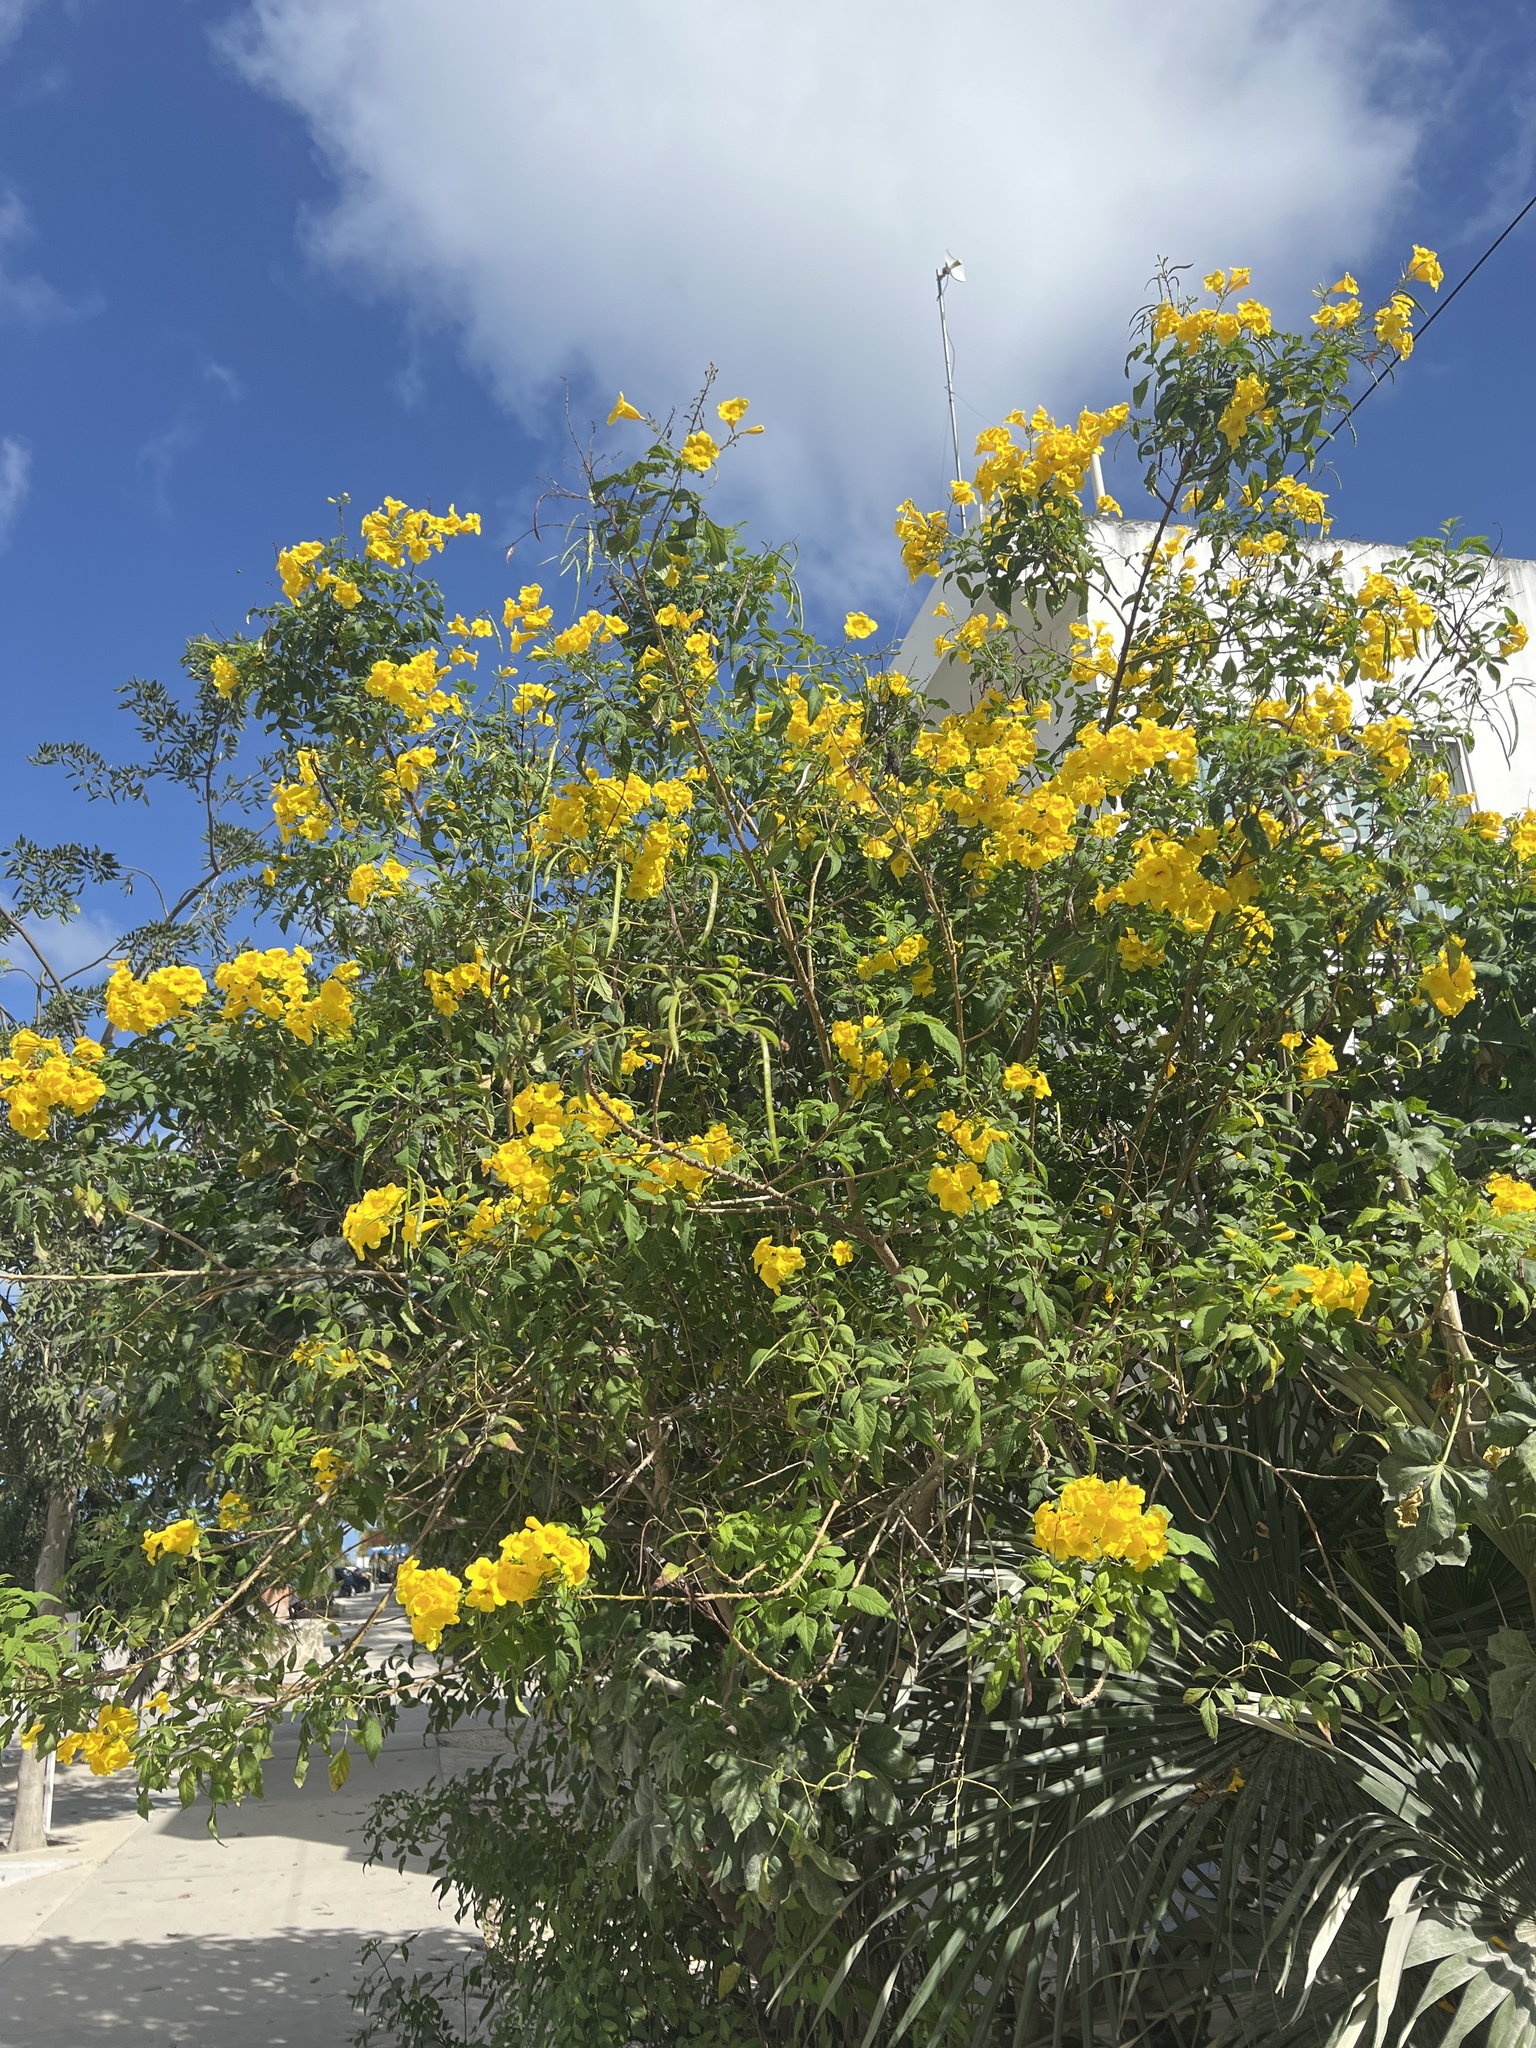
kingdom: Plantae
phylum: Tracheophyta
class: Magnoliopsida
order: Lamiales
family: Bignoniaceae
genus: Tecoma
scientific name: Tecoma stans
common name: Yellow trumpetbush
